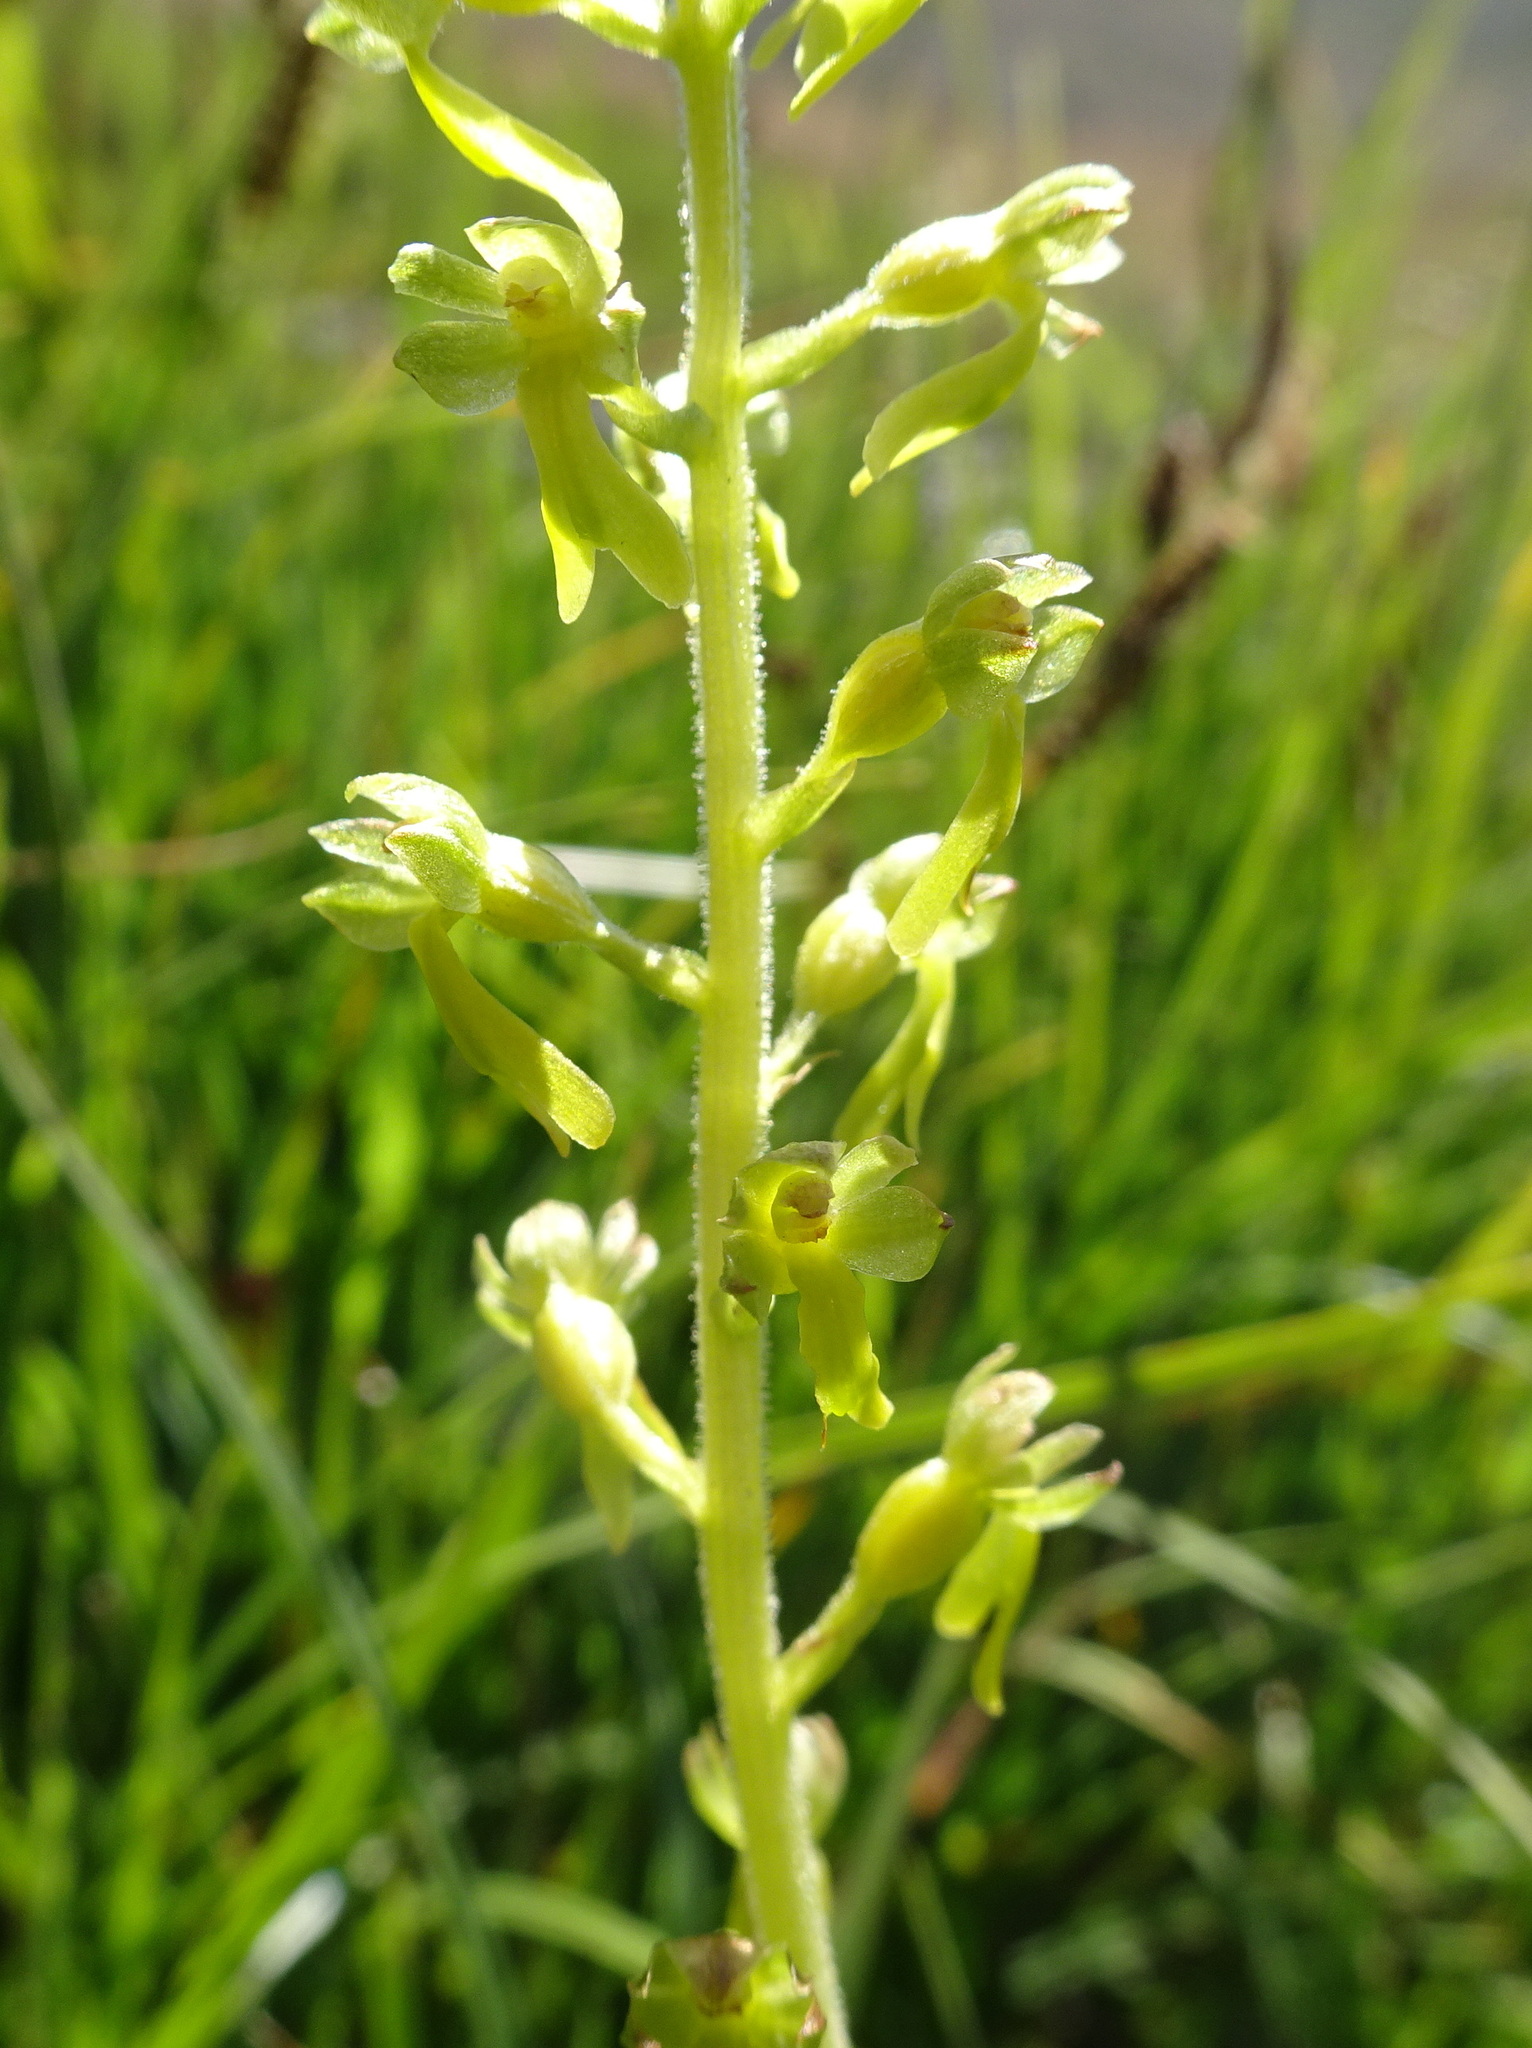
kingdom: Plantae
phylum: Tracheophyta
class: Liliopsida
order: Asparagales
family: Orchidaceae
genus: Neottia
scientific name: Neottia ovata
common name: Common twayblade
